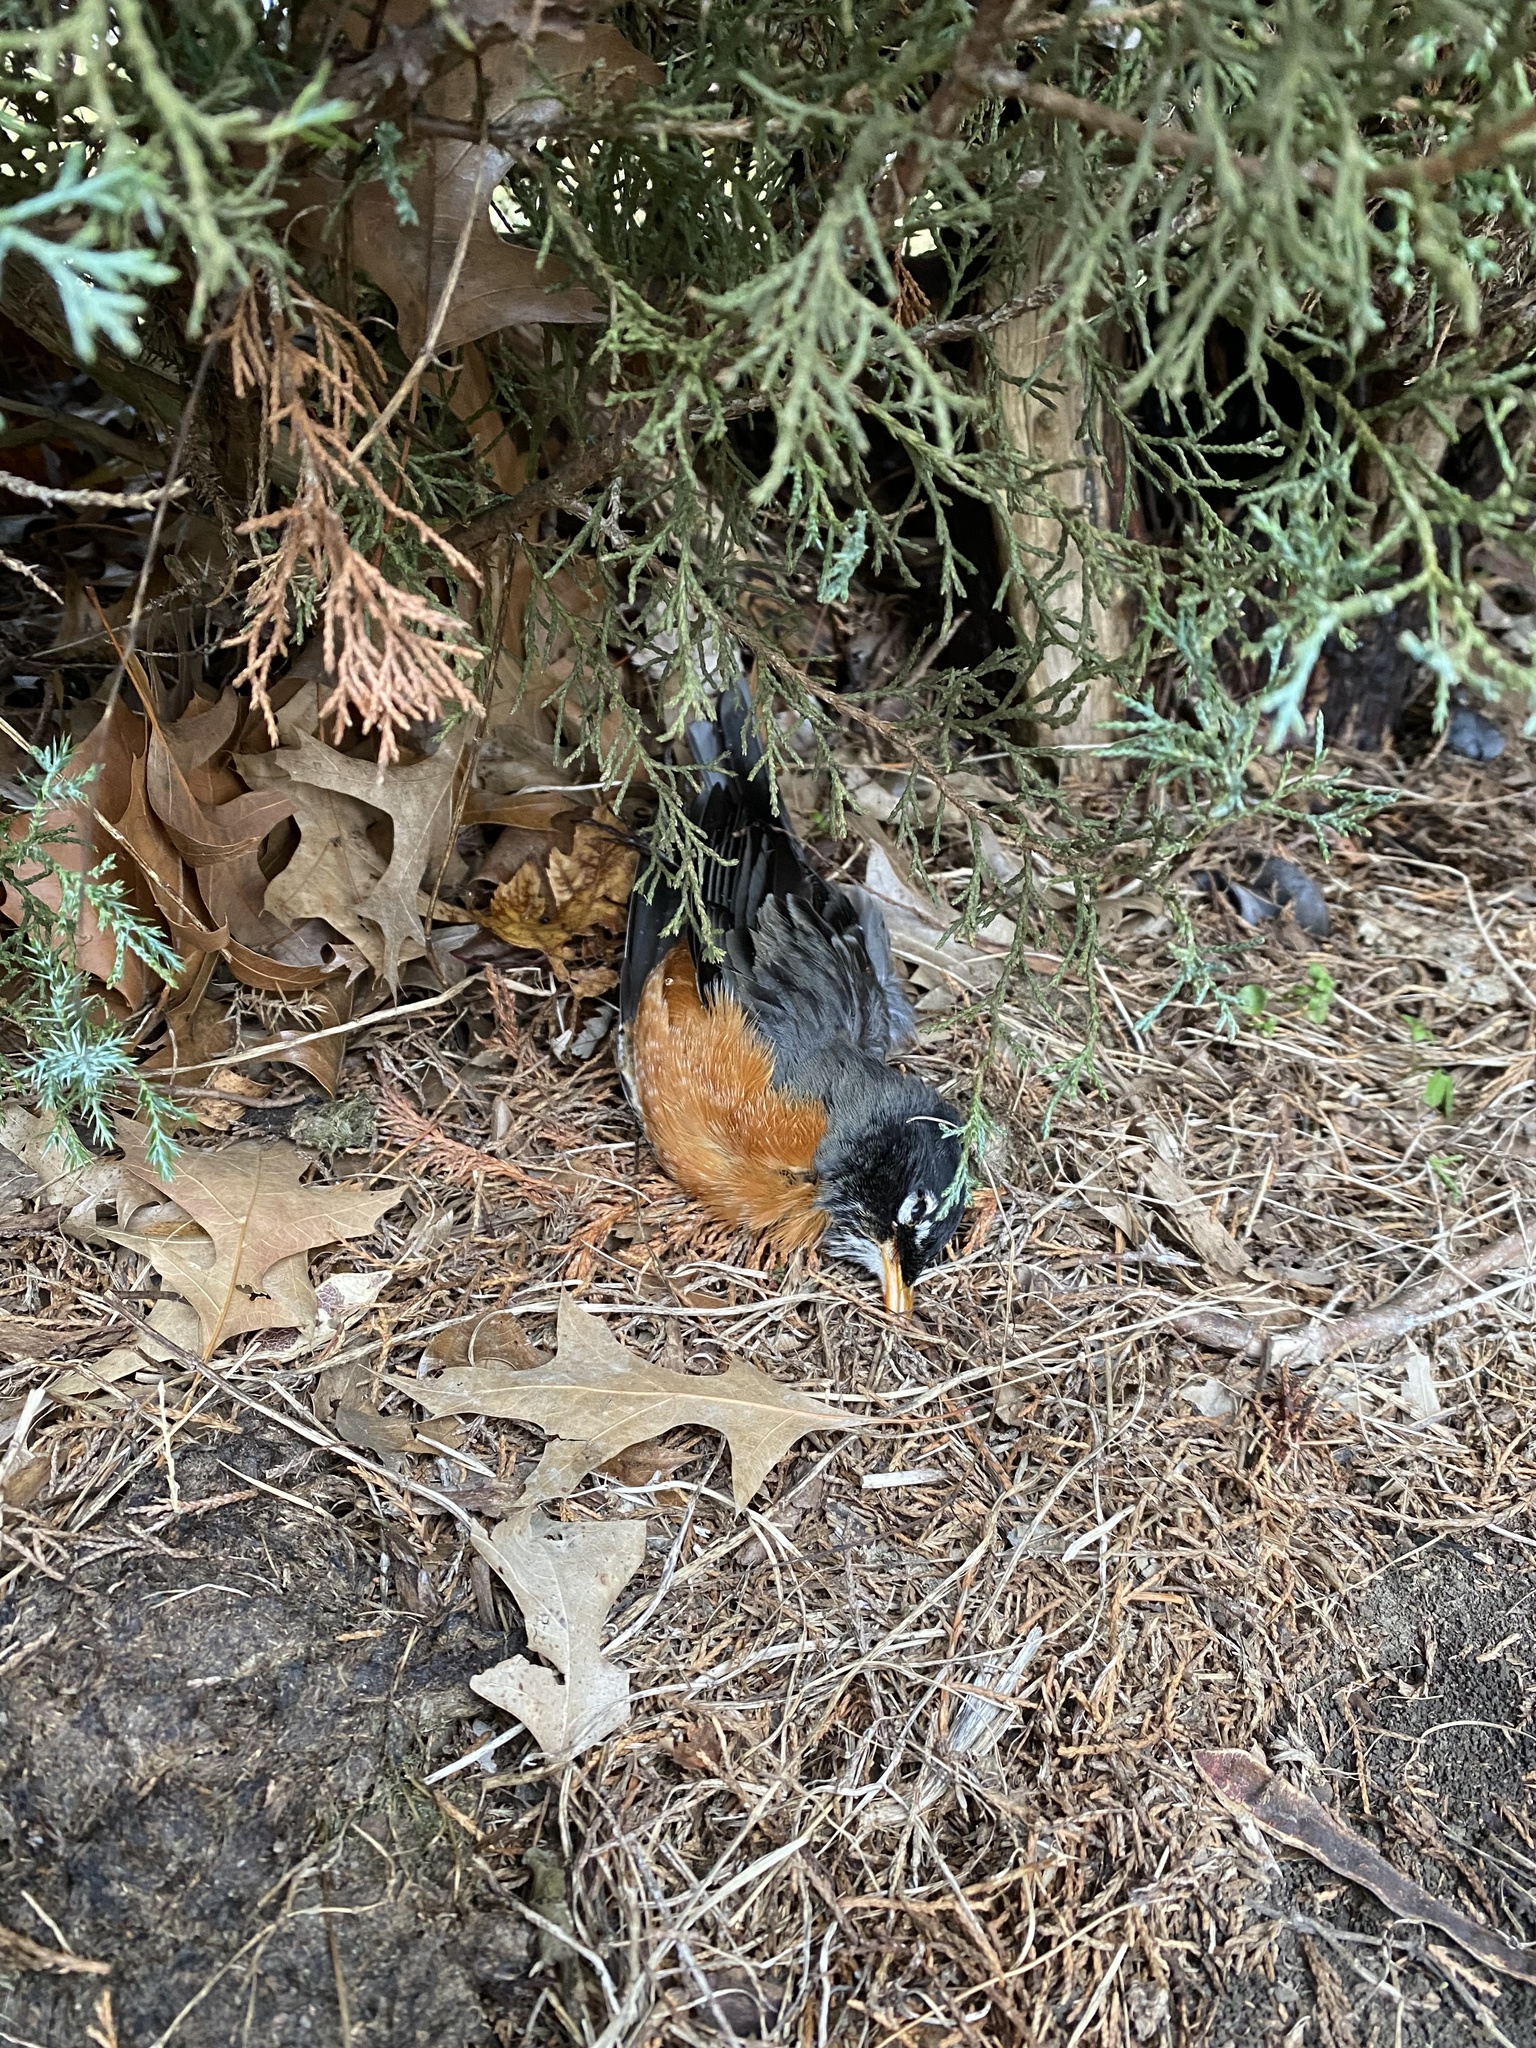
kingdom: Animalia
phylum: Chordata
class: Aves
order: Passeriformes
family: Turdidae
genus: Turdus
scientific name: Turdus migratorius
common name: American robin
